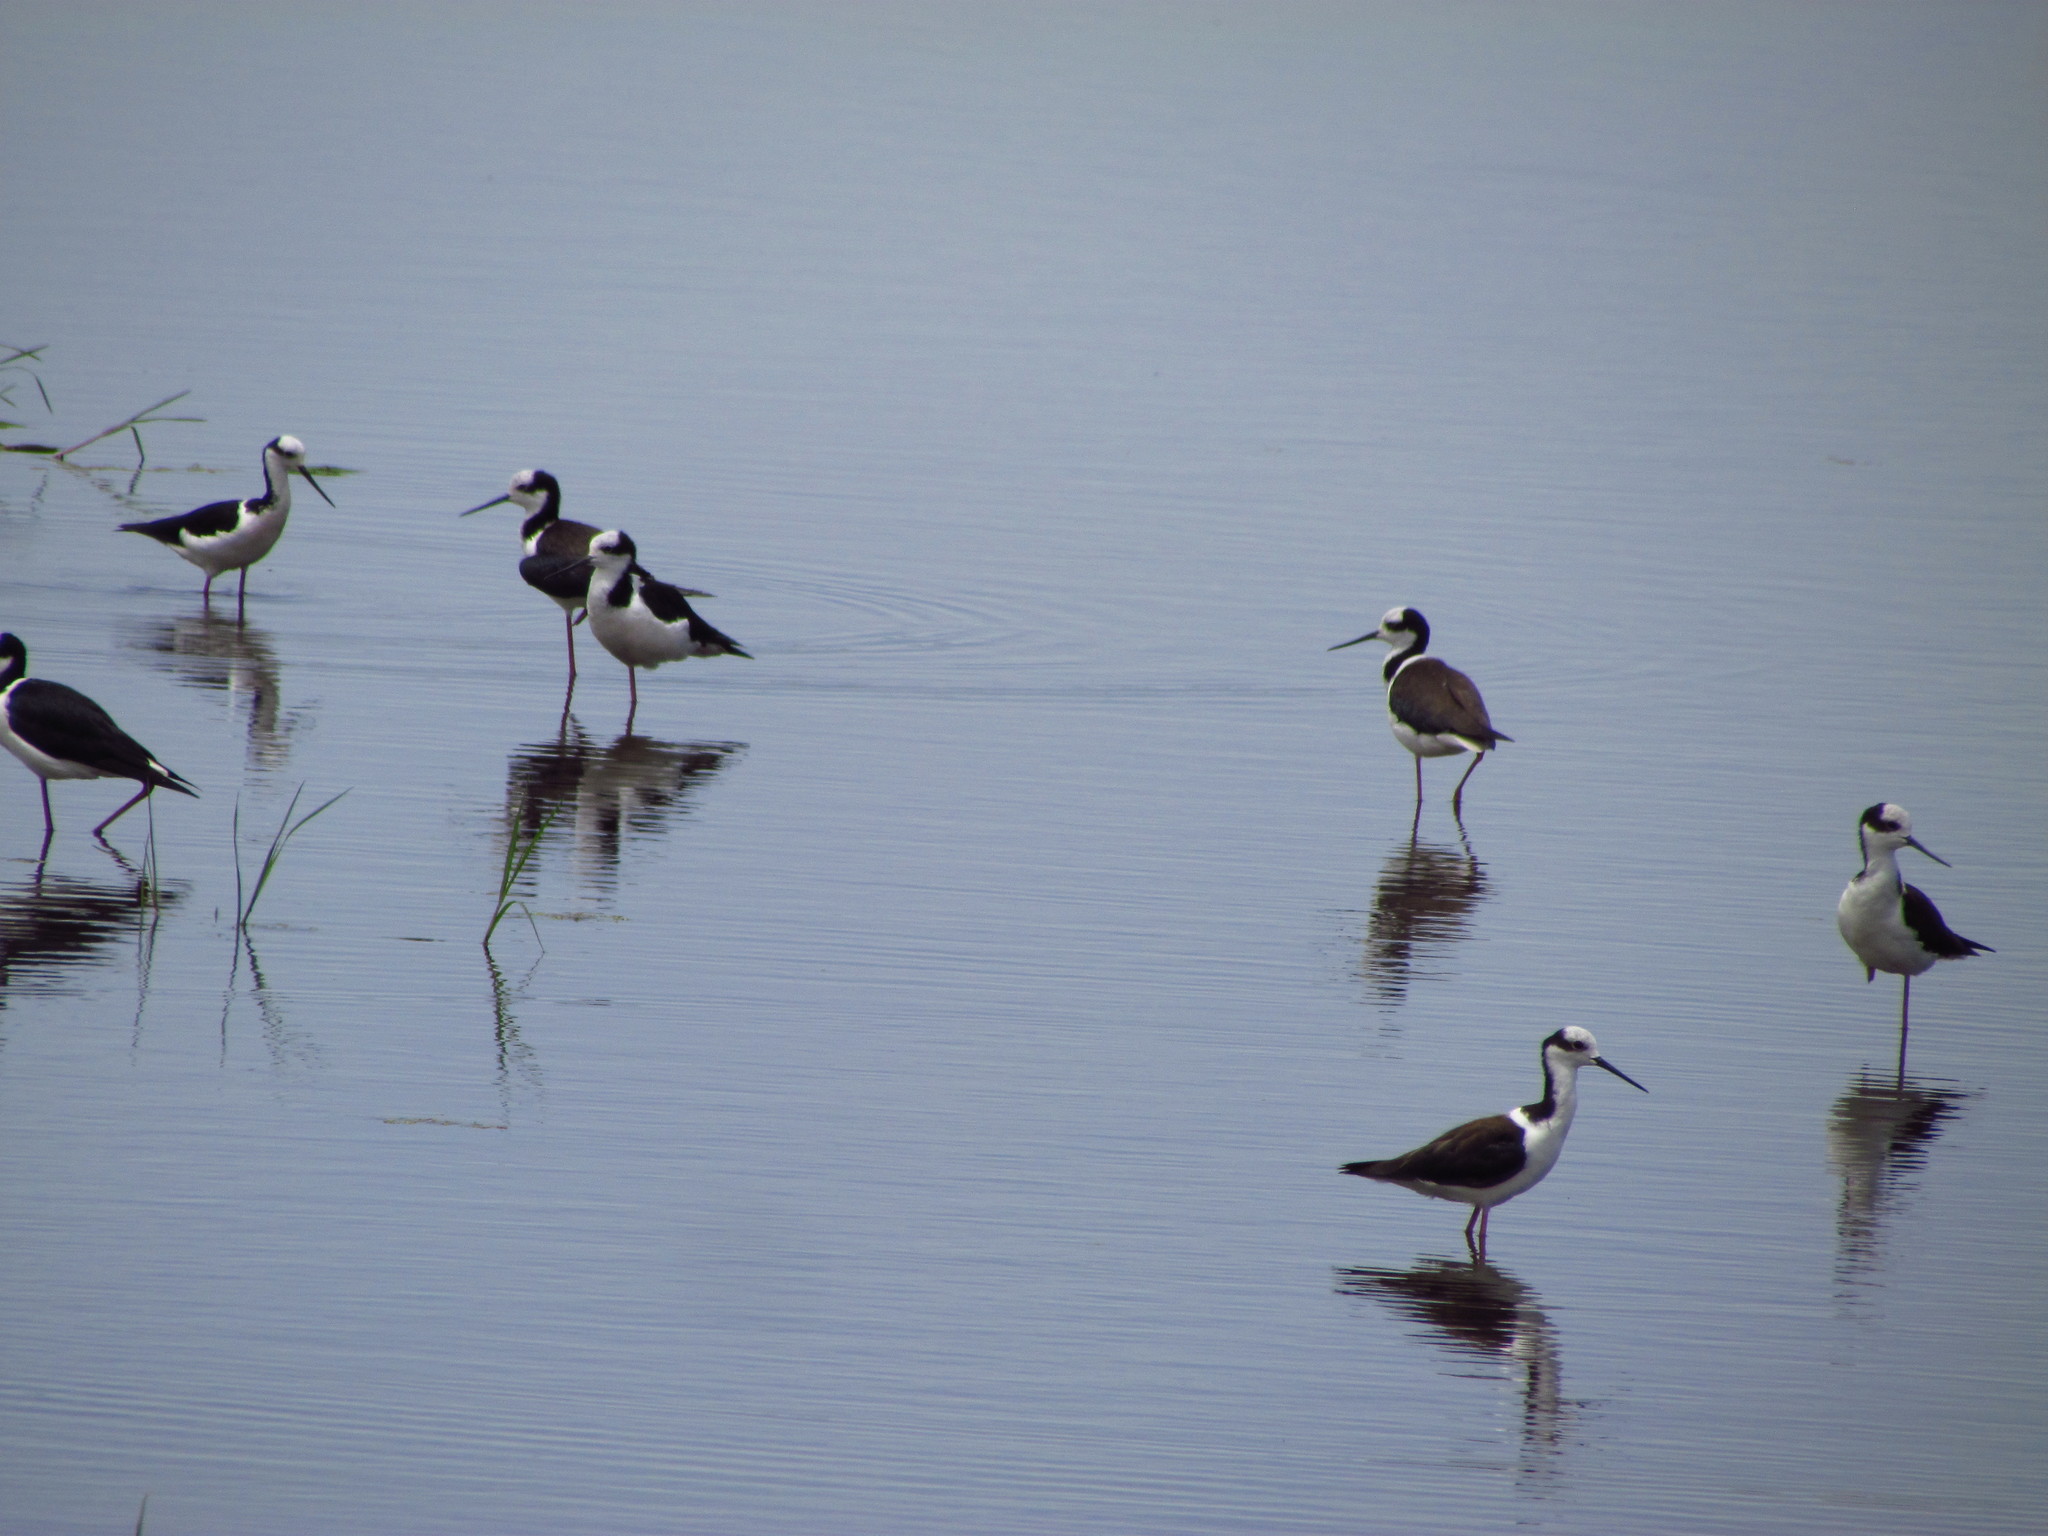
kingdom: Animalia
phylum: Chordata
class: Aves
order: Charadriiformes
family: Recurvirostridae
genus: Himantopus
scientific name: Himantopus mexicanus
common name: Black-necked stilt
